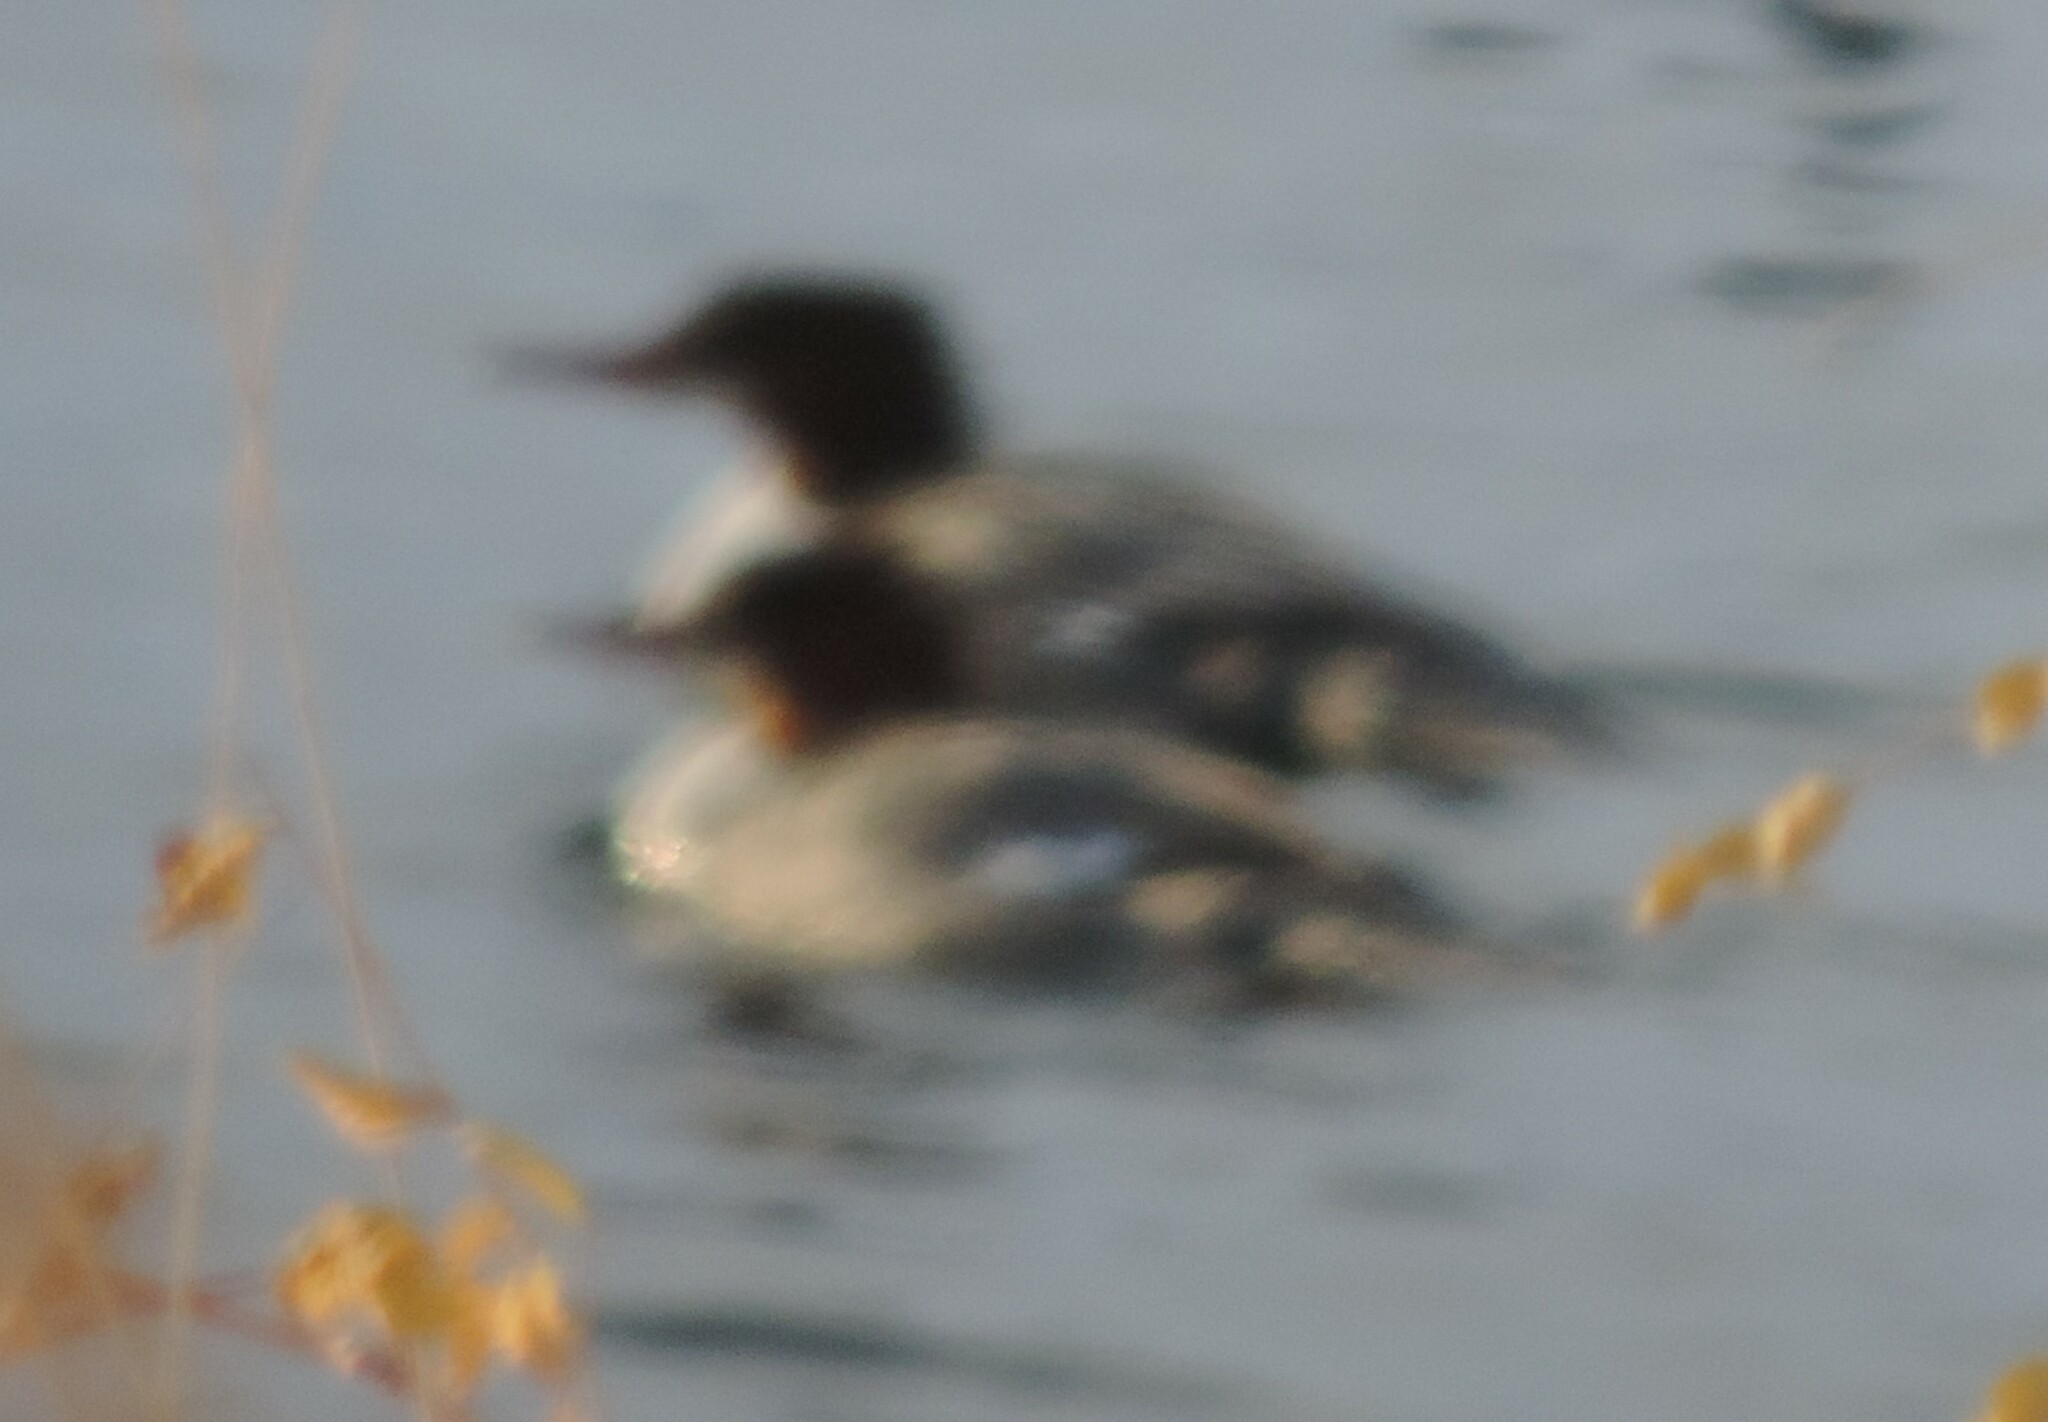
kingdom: Animalia
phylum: Chordata
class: Aves
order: Anseriformes
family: Anatidae
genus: Mergus
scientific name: Mergus merganser
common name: Common merganser
